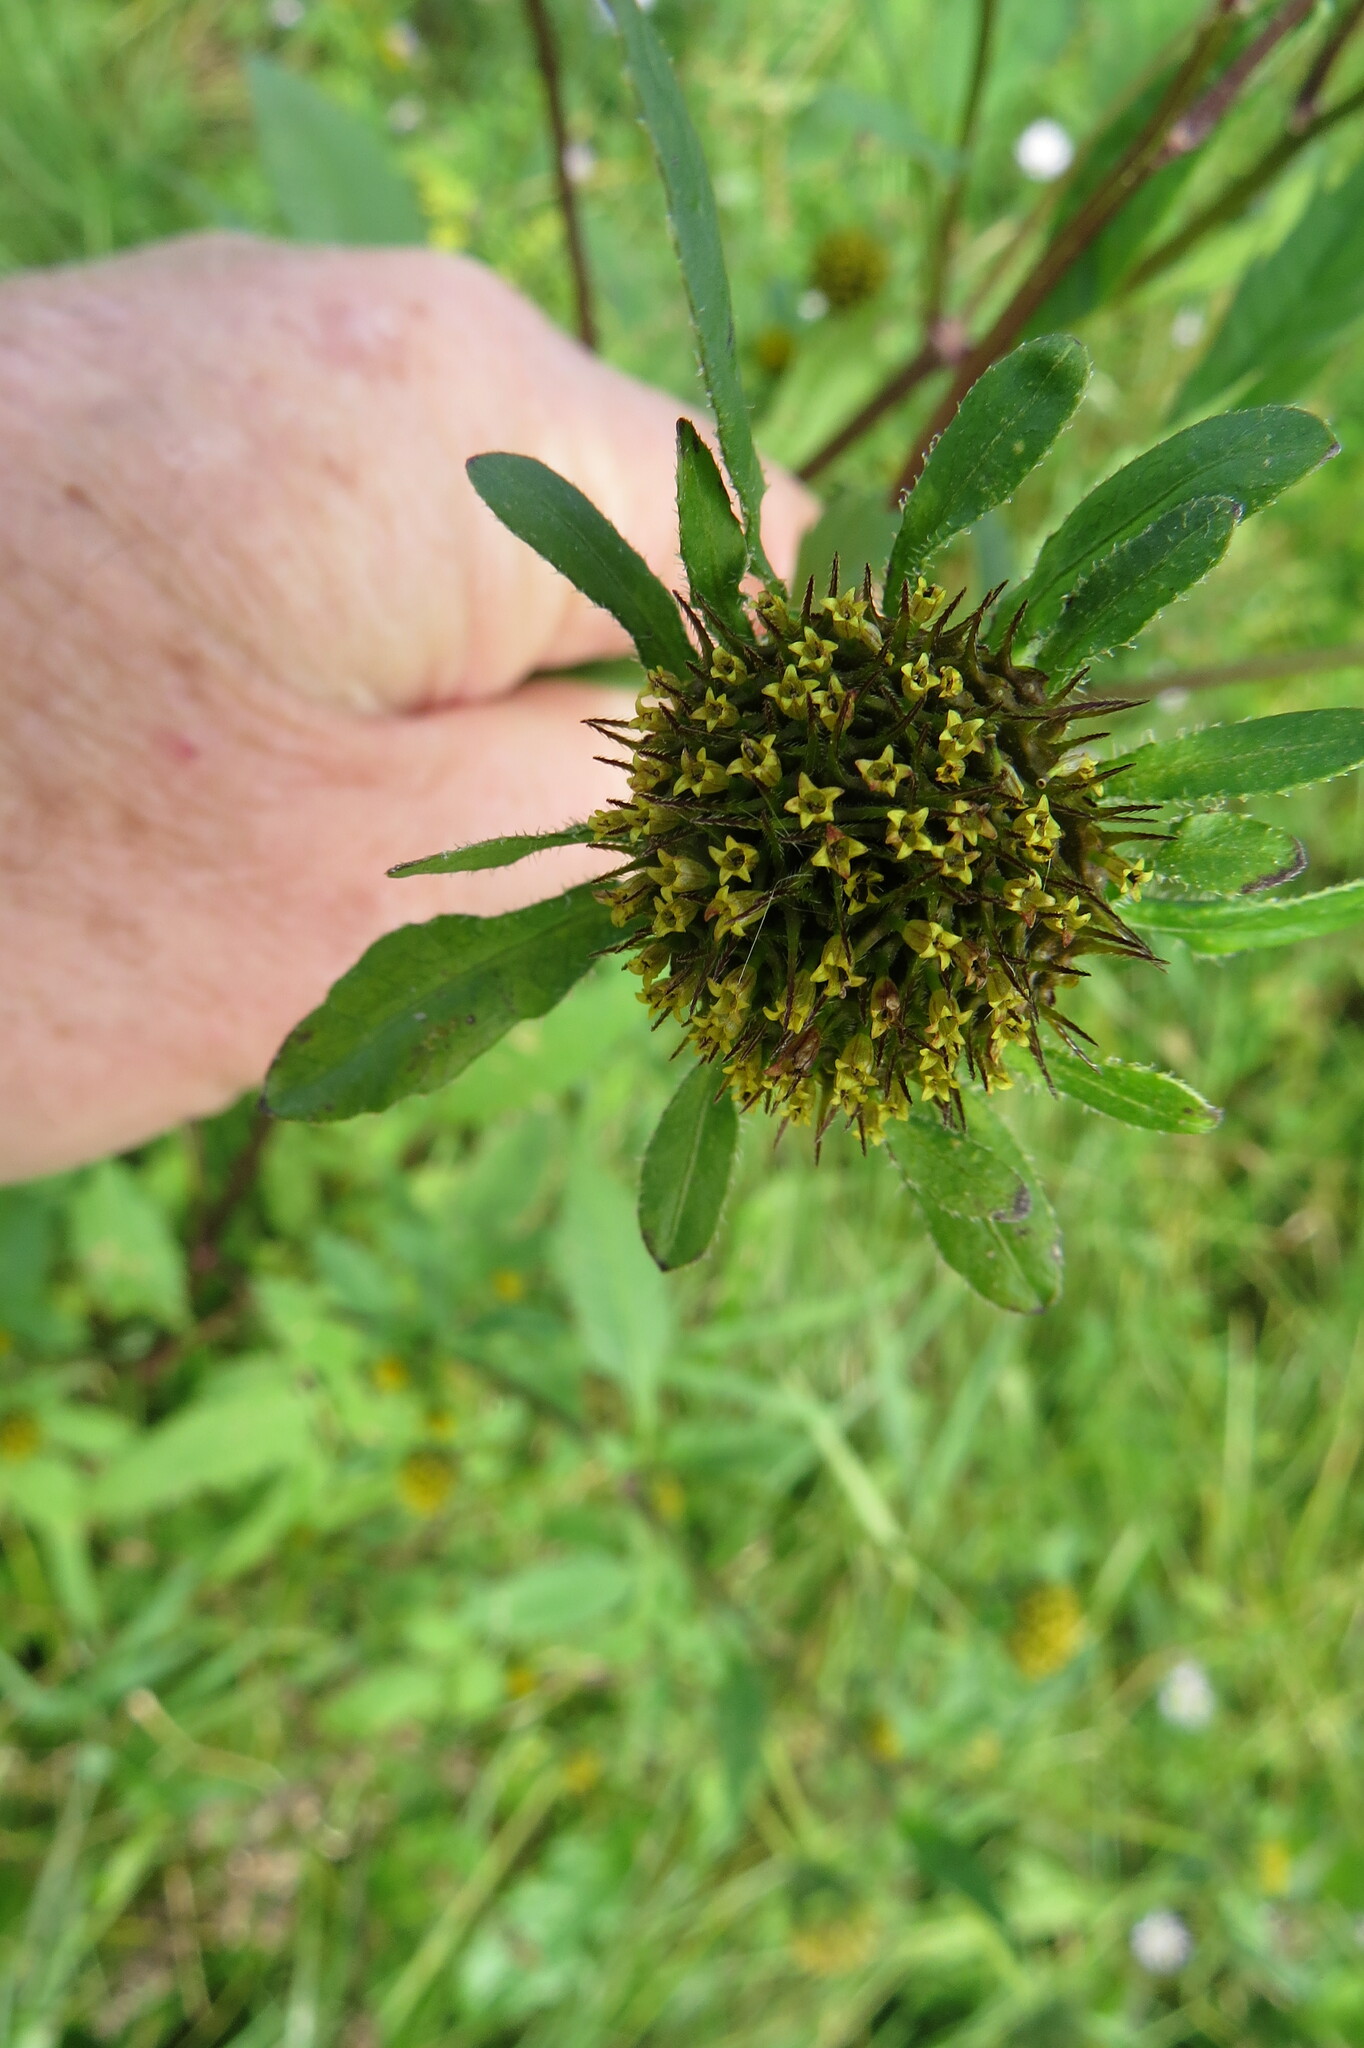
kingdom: Plantae
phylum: Tracheophyta
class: Magnoliopsida
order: Asterales
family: Asteraceae
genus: Bidens
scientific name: Bidens vulgata
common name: Tall beggarticks
